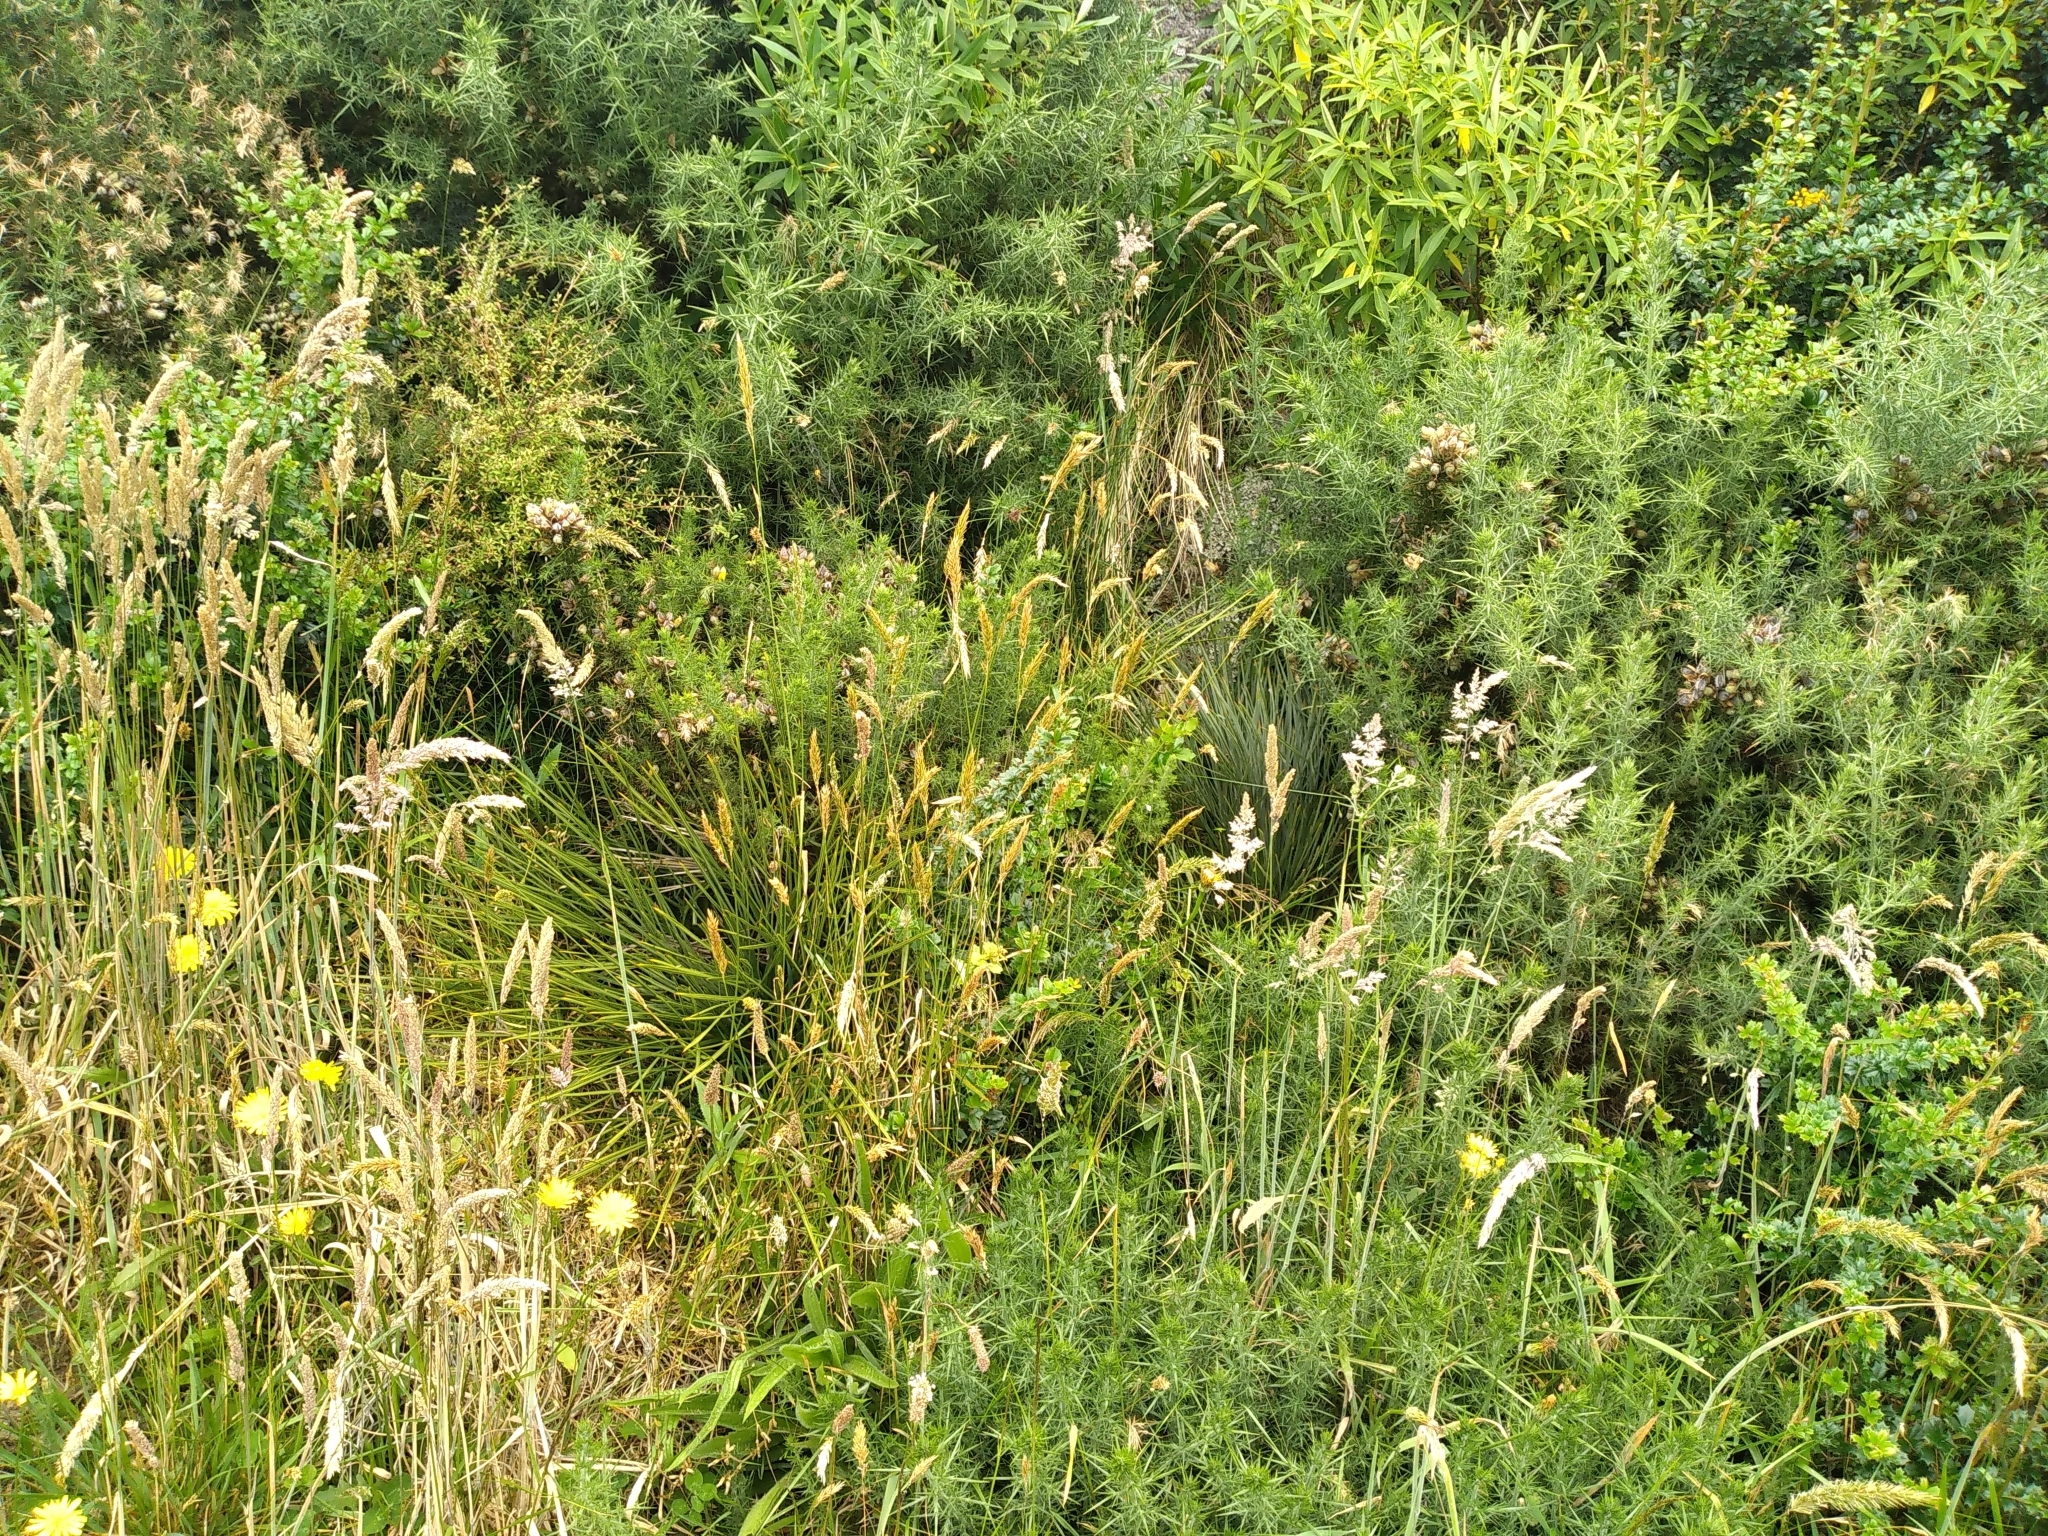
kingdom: Plantae
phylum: Tracheophyta
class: Magnoliopsida
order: Apiales
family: Apiaceae
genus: Aciphylla
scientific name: Aciphylla squarrosa
